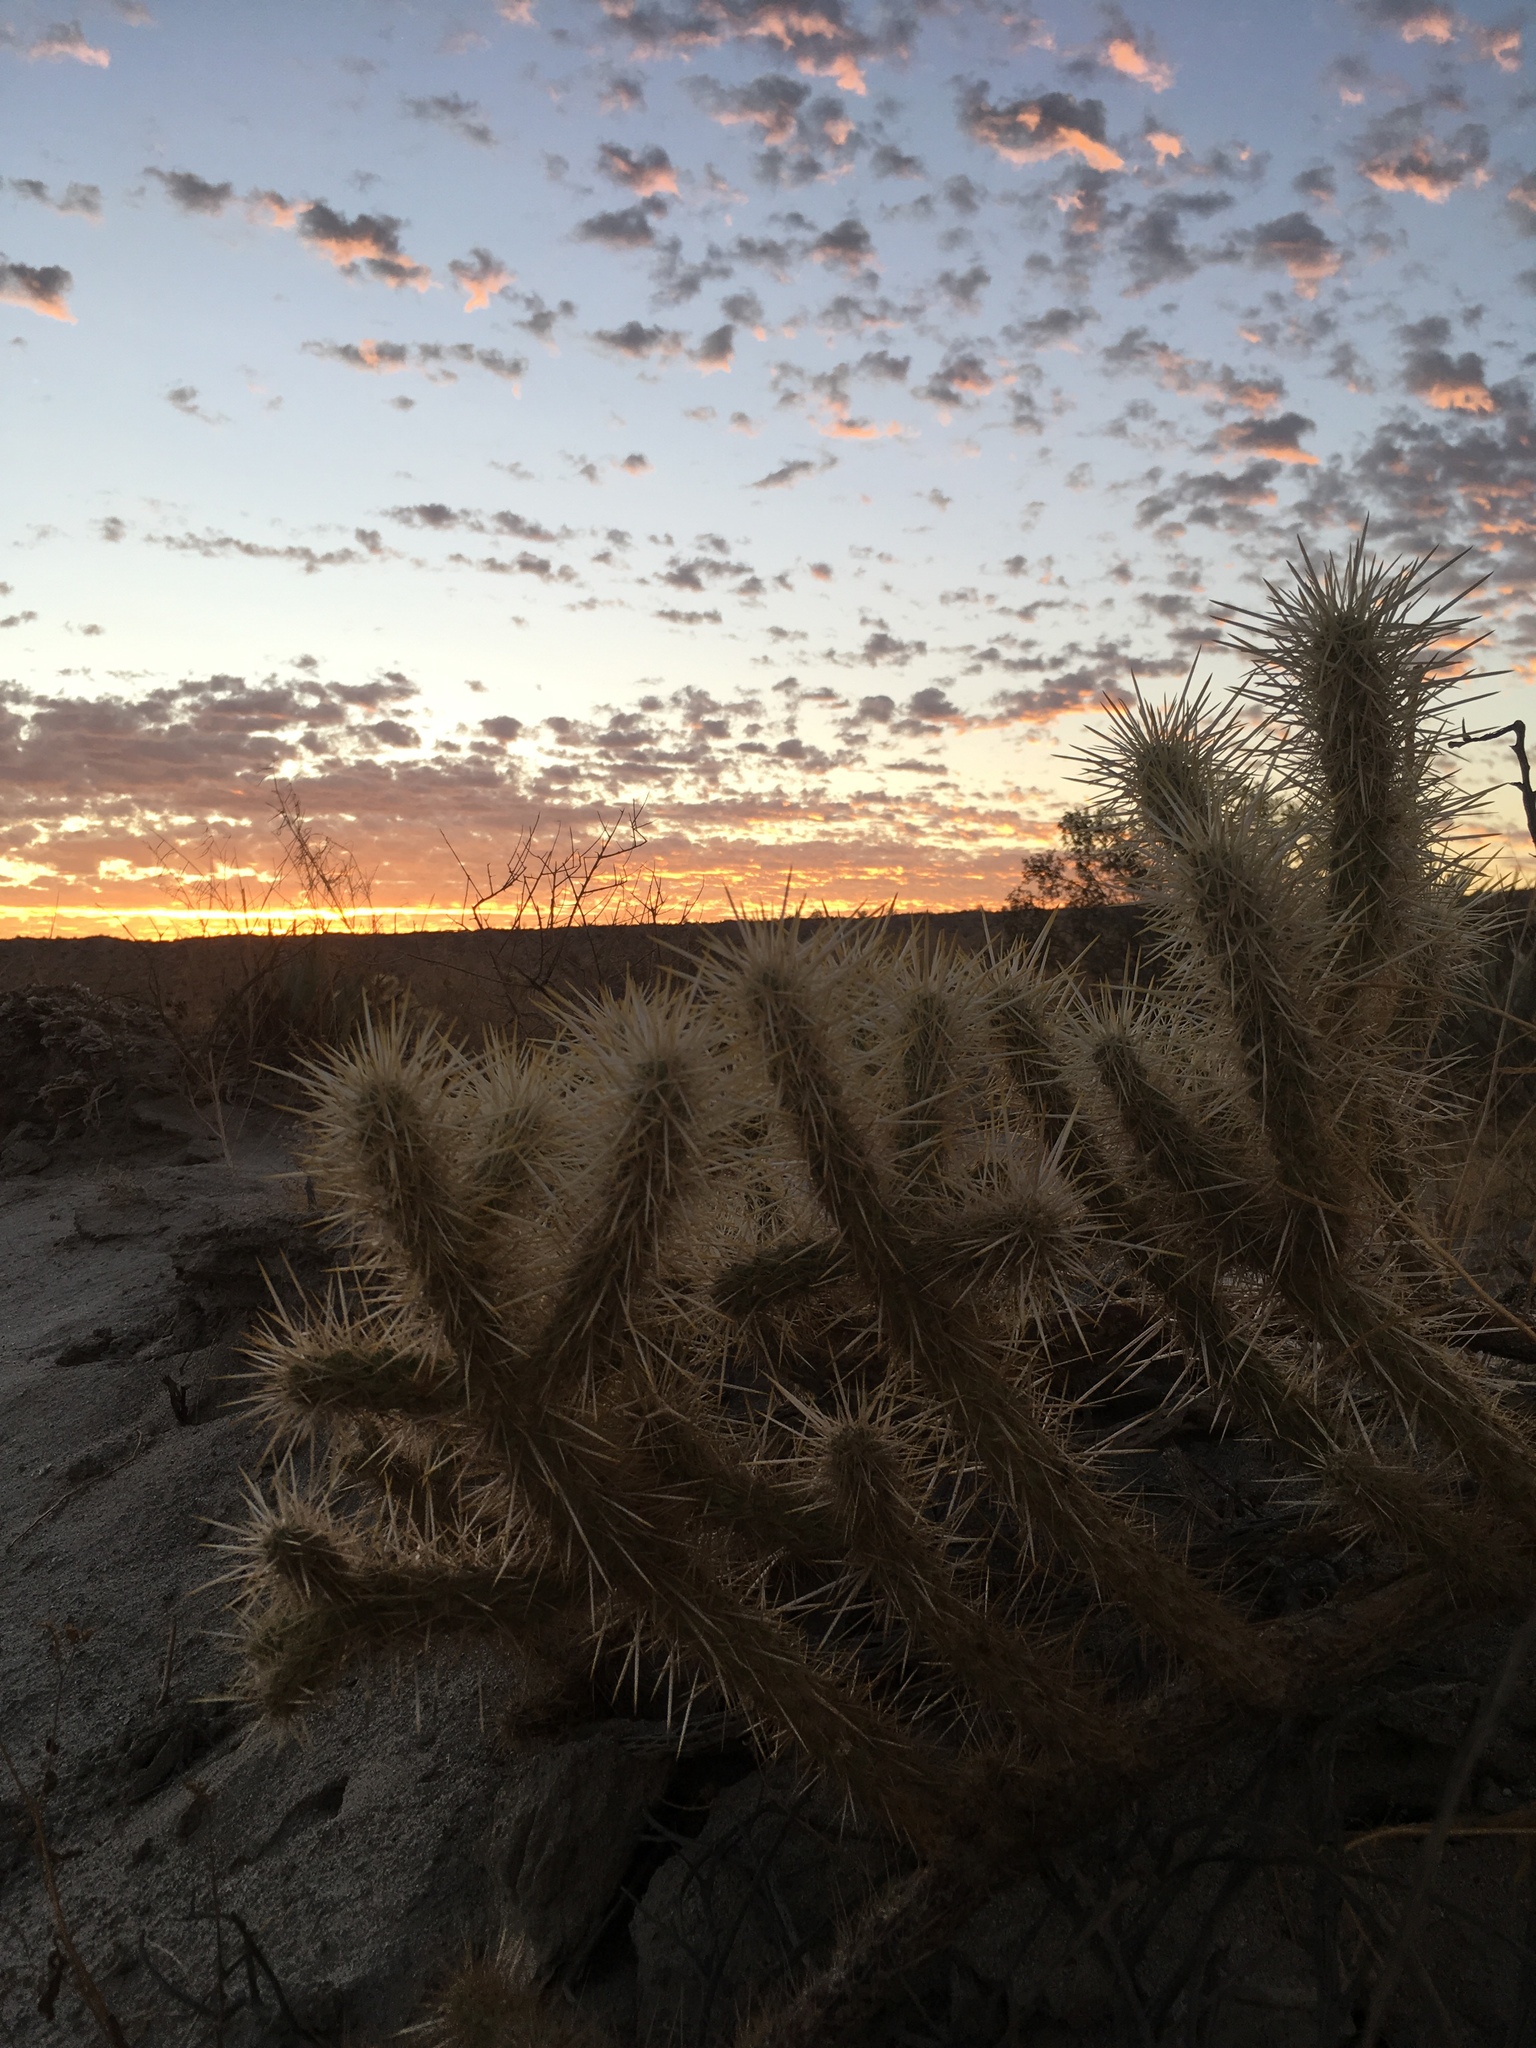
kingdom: Plantae
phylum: Tracheophyta
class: Magnoliopsida
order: Caryophyllales
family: Cactaceae
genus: Cylindropuntia
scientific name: Cylindropuntia ganderi
